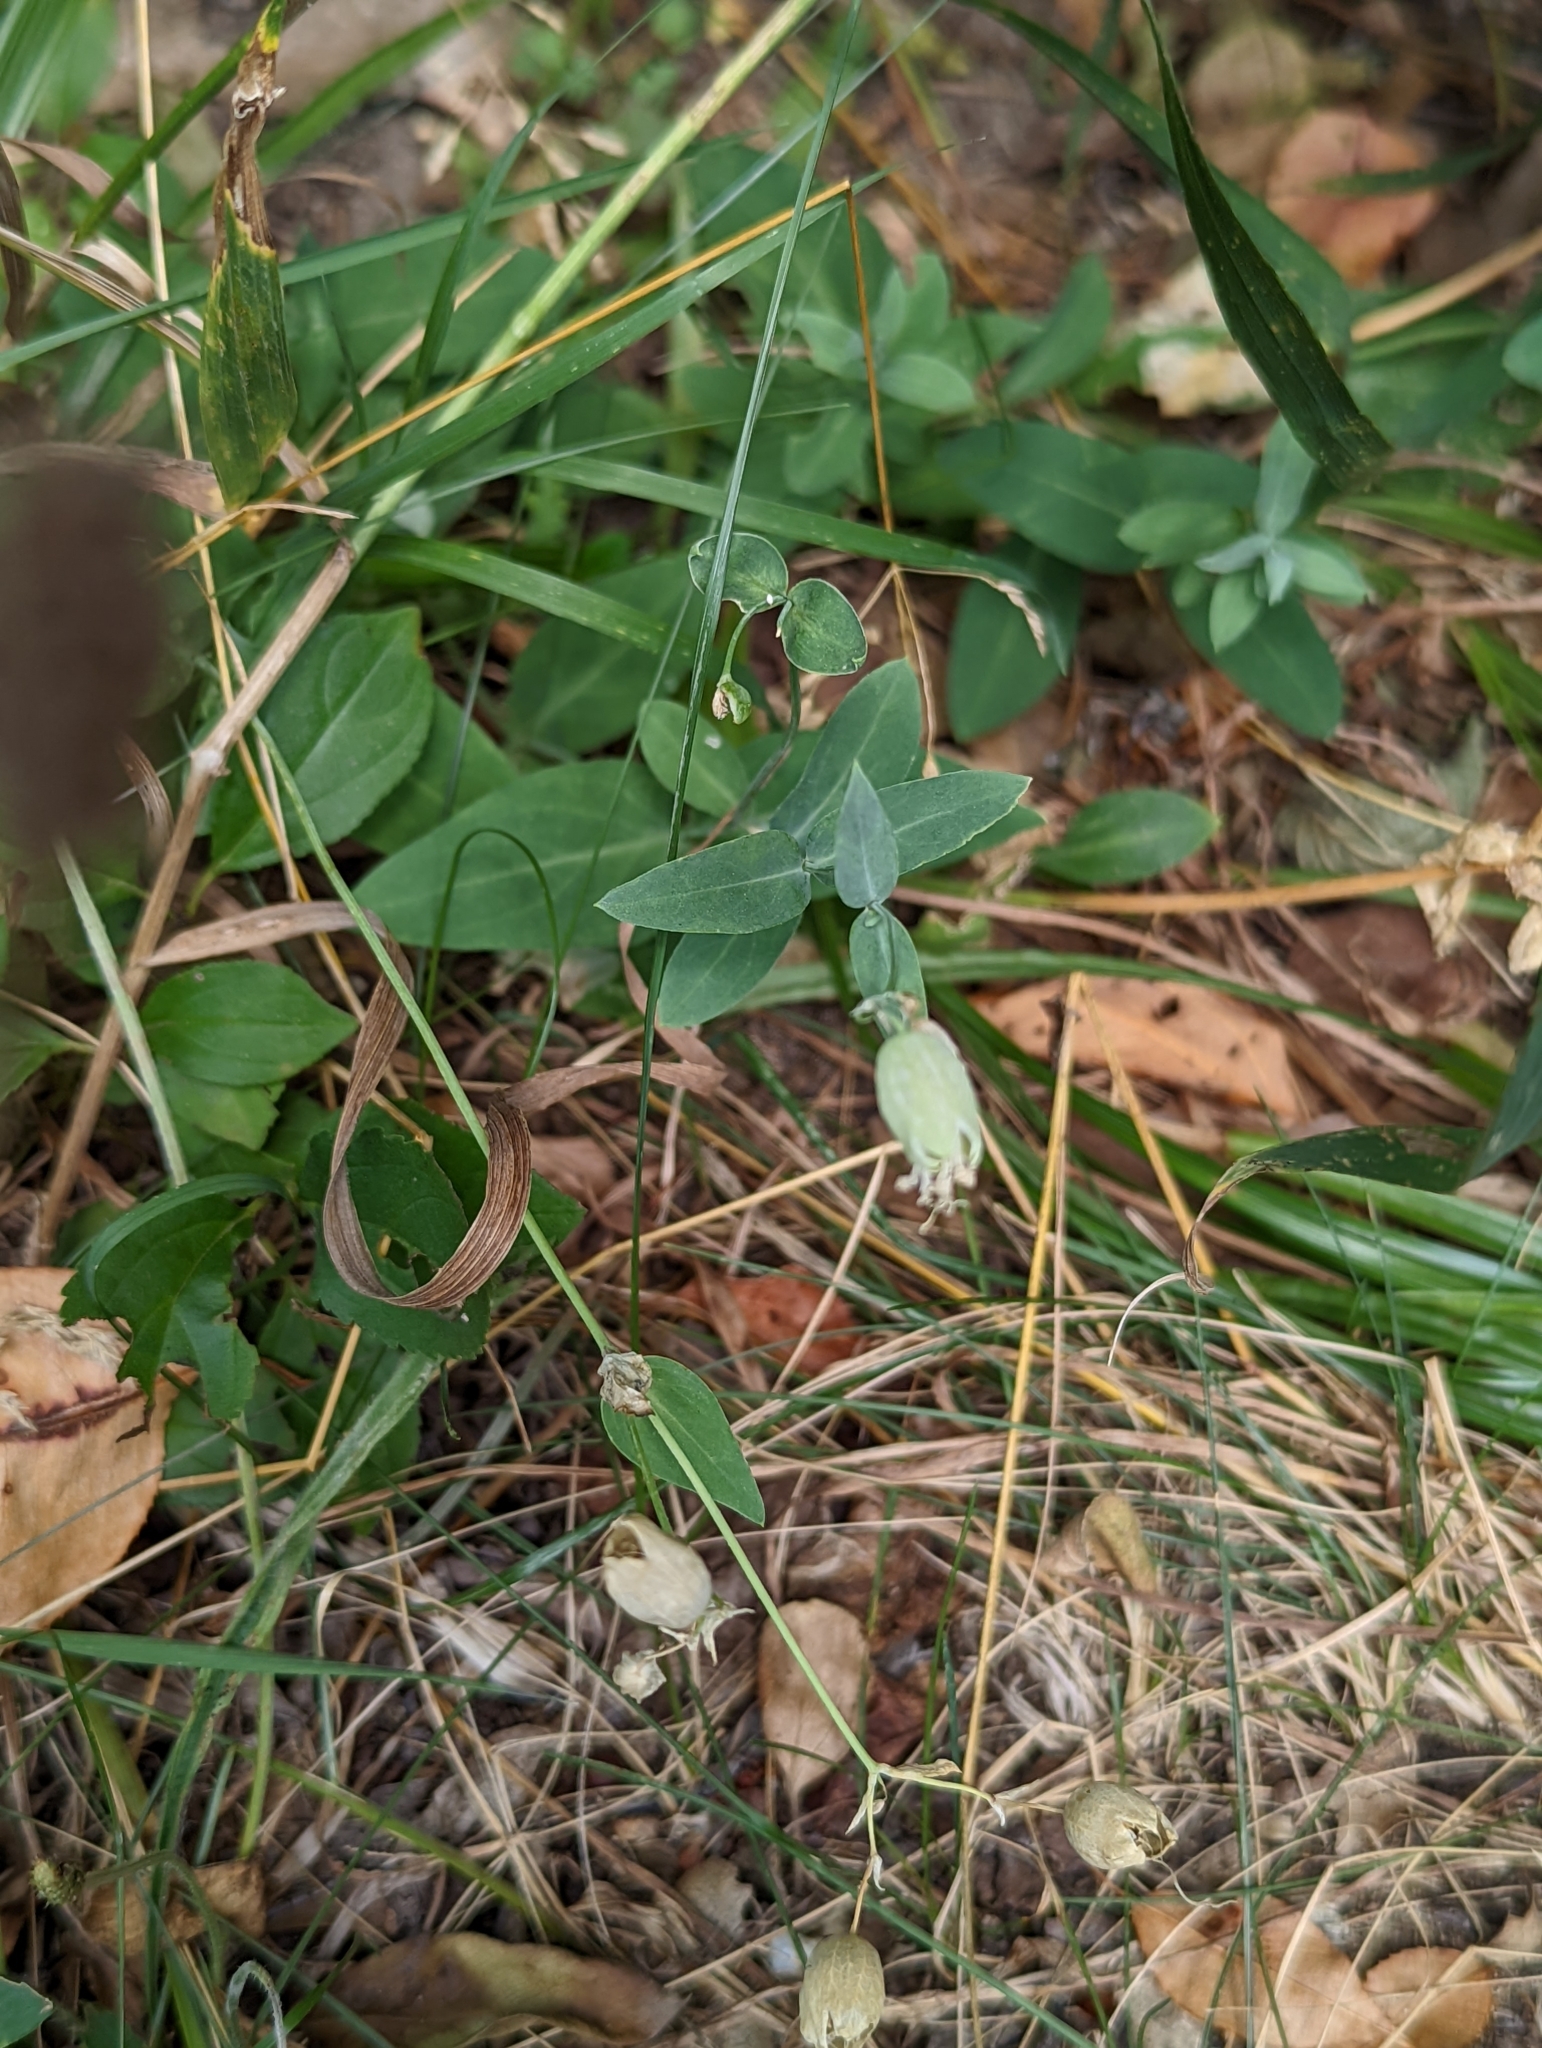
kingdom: Plantae
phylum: Tracheophyta
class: Magnoliopsida
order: Caryophyllales
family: Caryophyllaceae
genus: Silene
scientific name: Silene vulgaris
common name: Bladder campion
